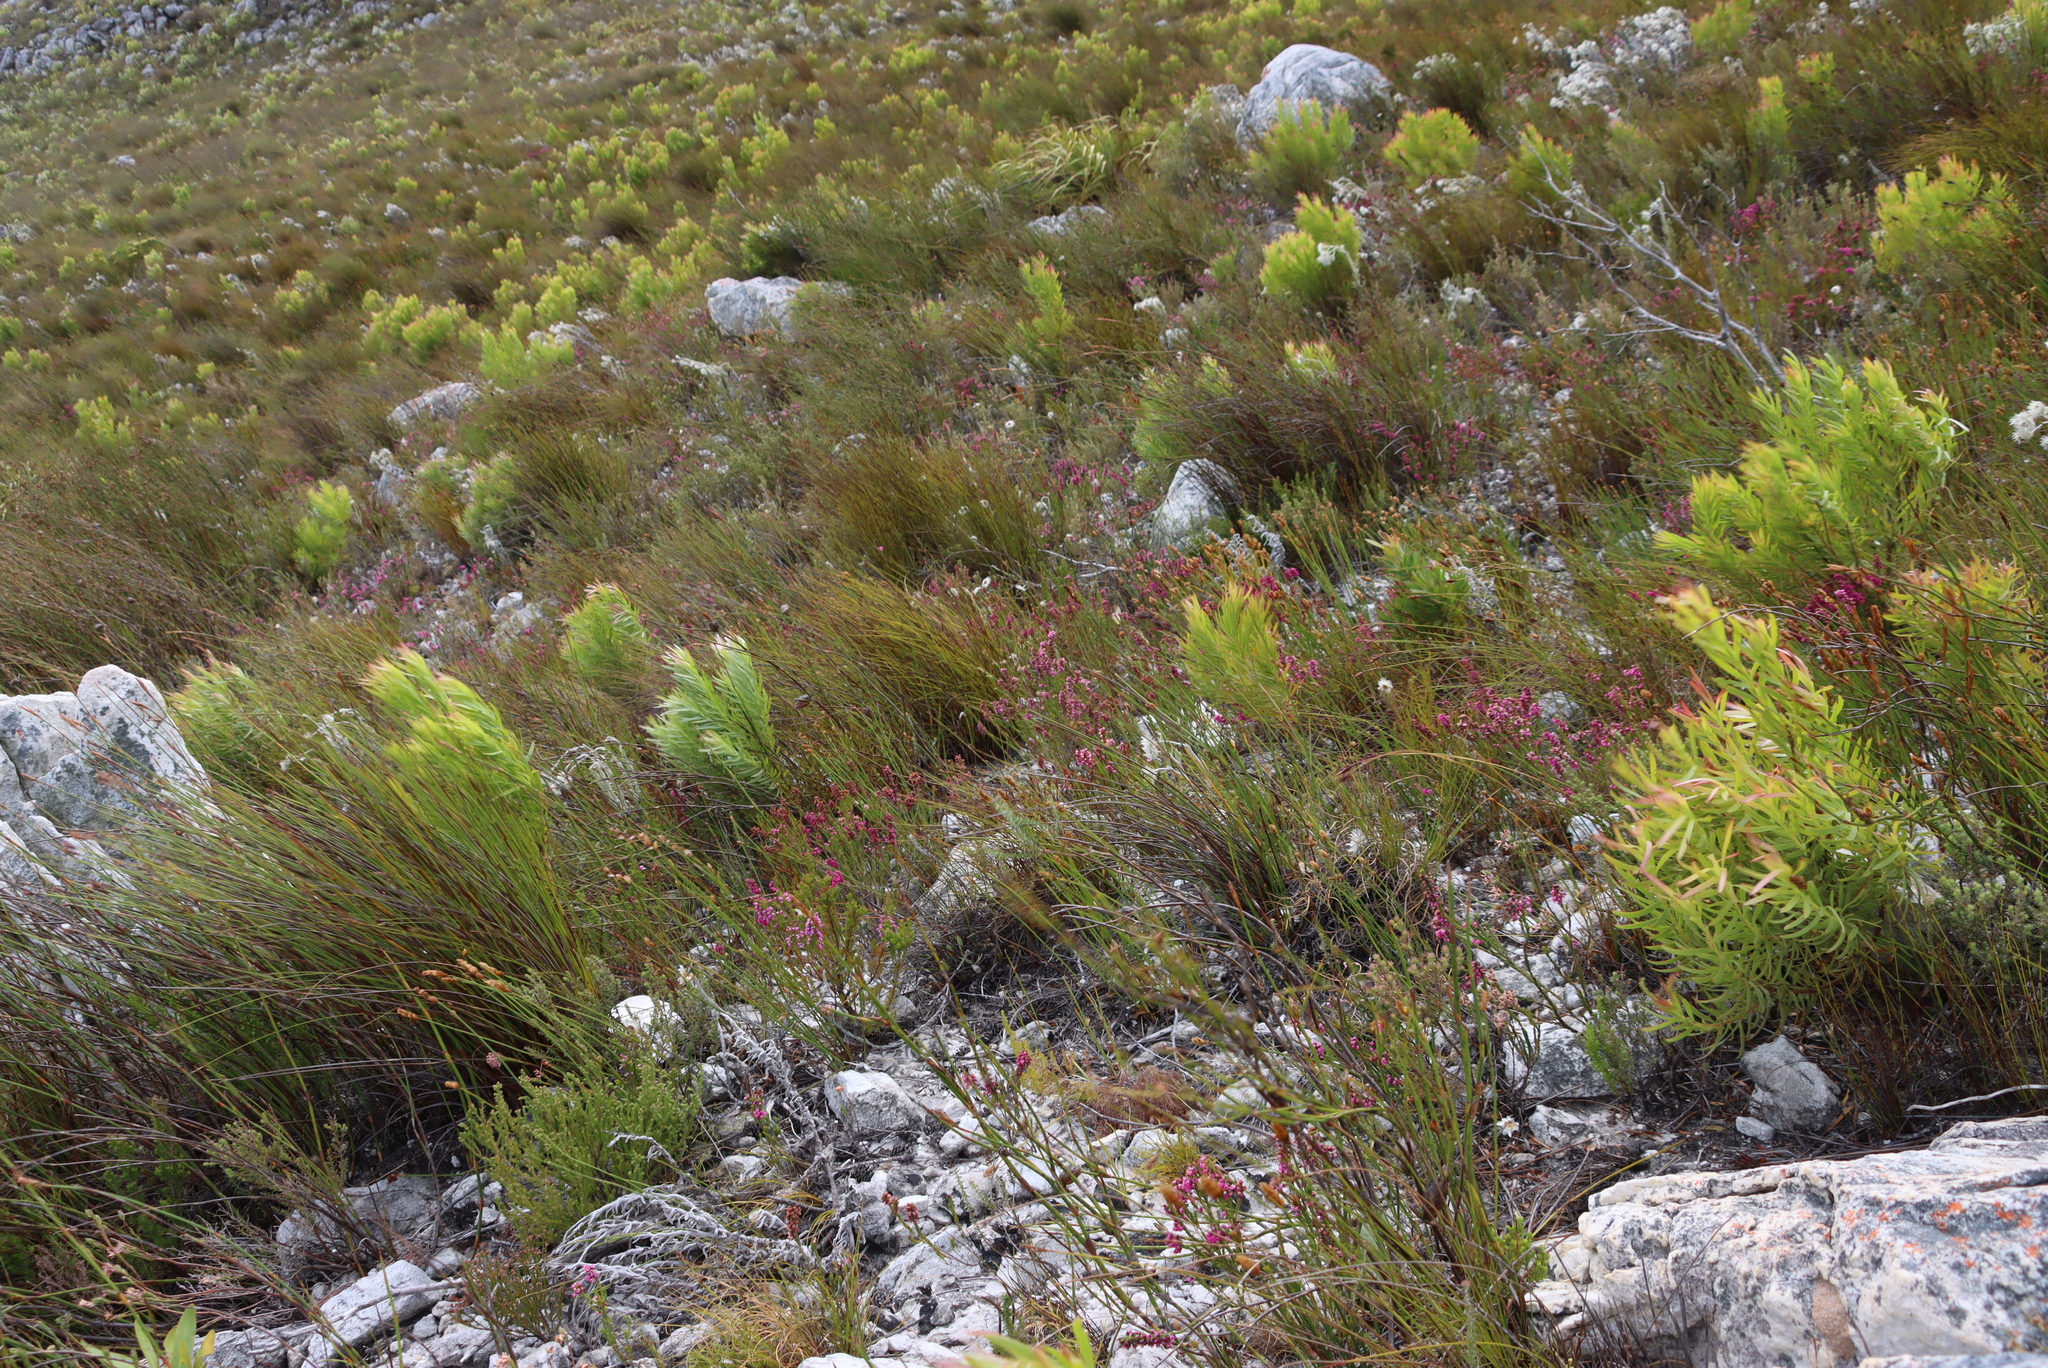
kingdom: Plantae
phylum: Tracheophyta
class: Magnoliopsida
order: Ericales
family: Ericaceae
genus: Erica
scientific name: Erica pulchella
